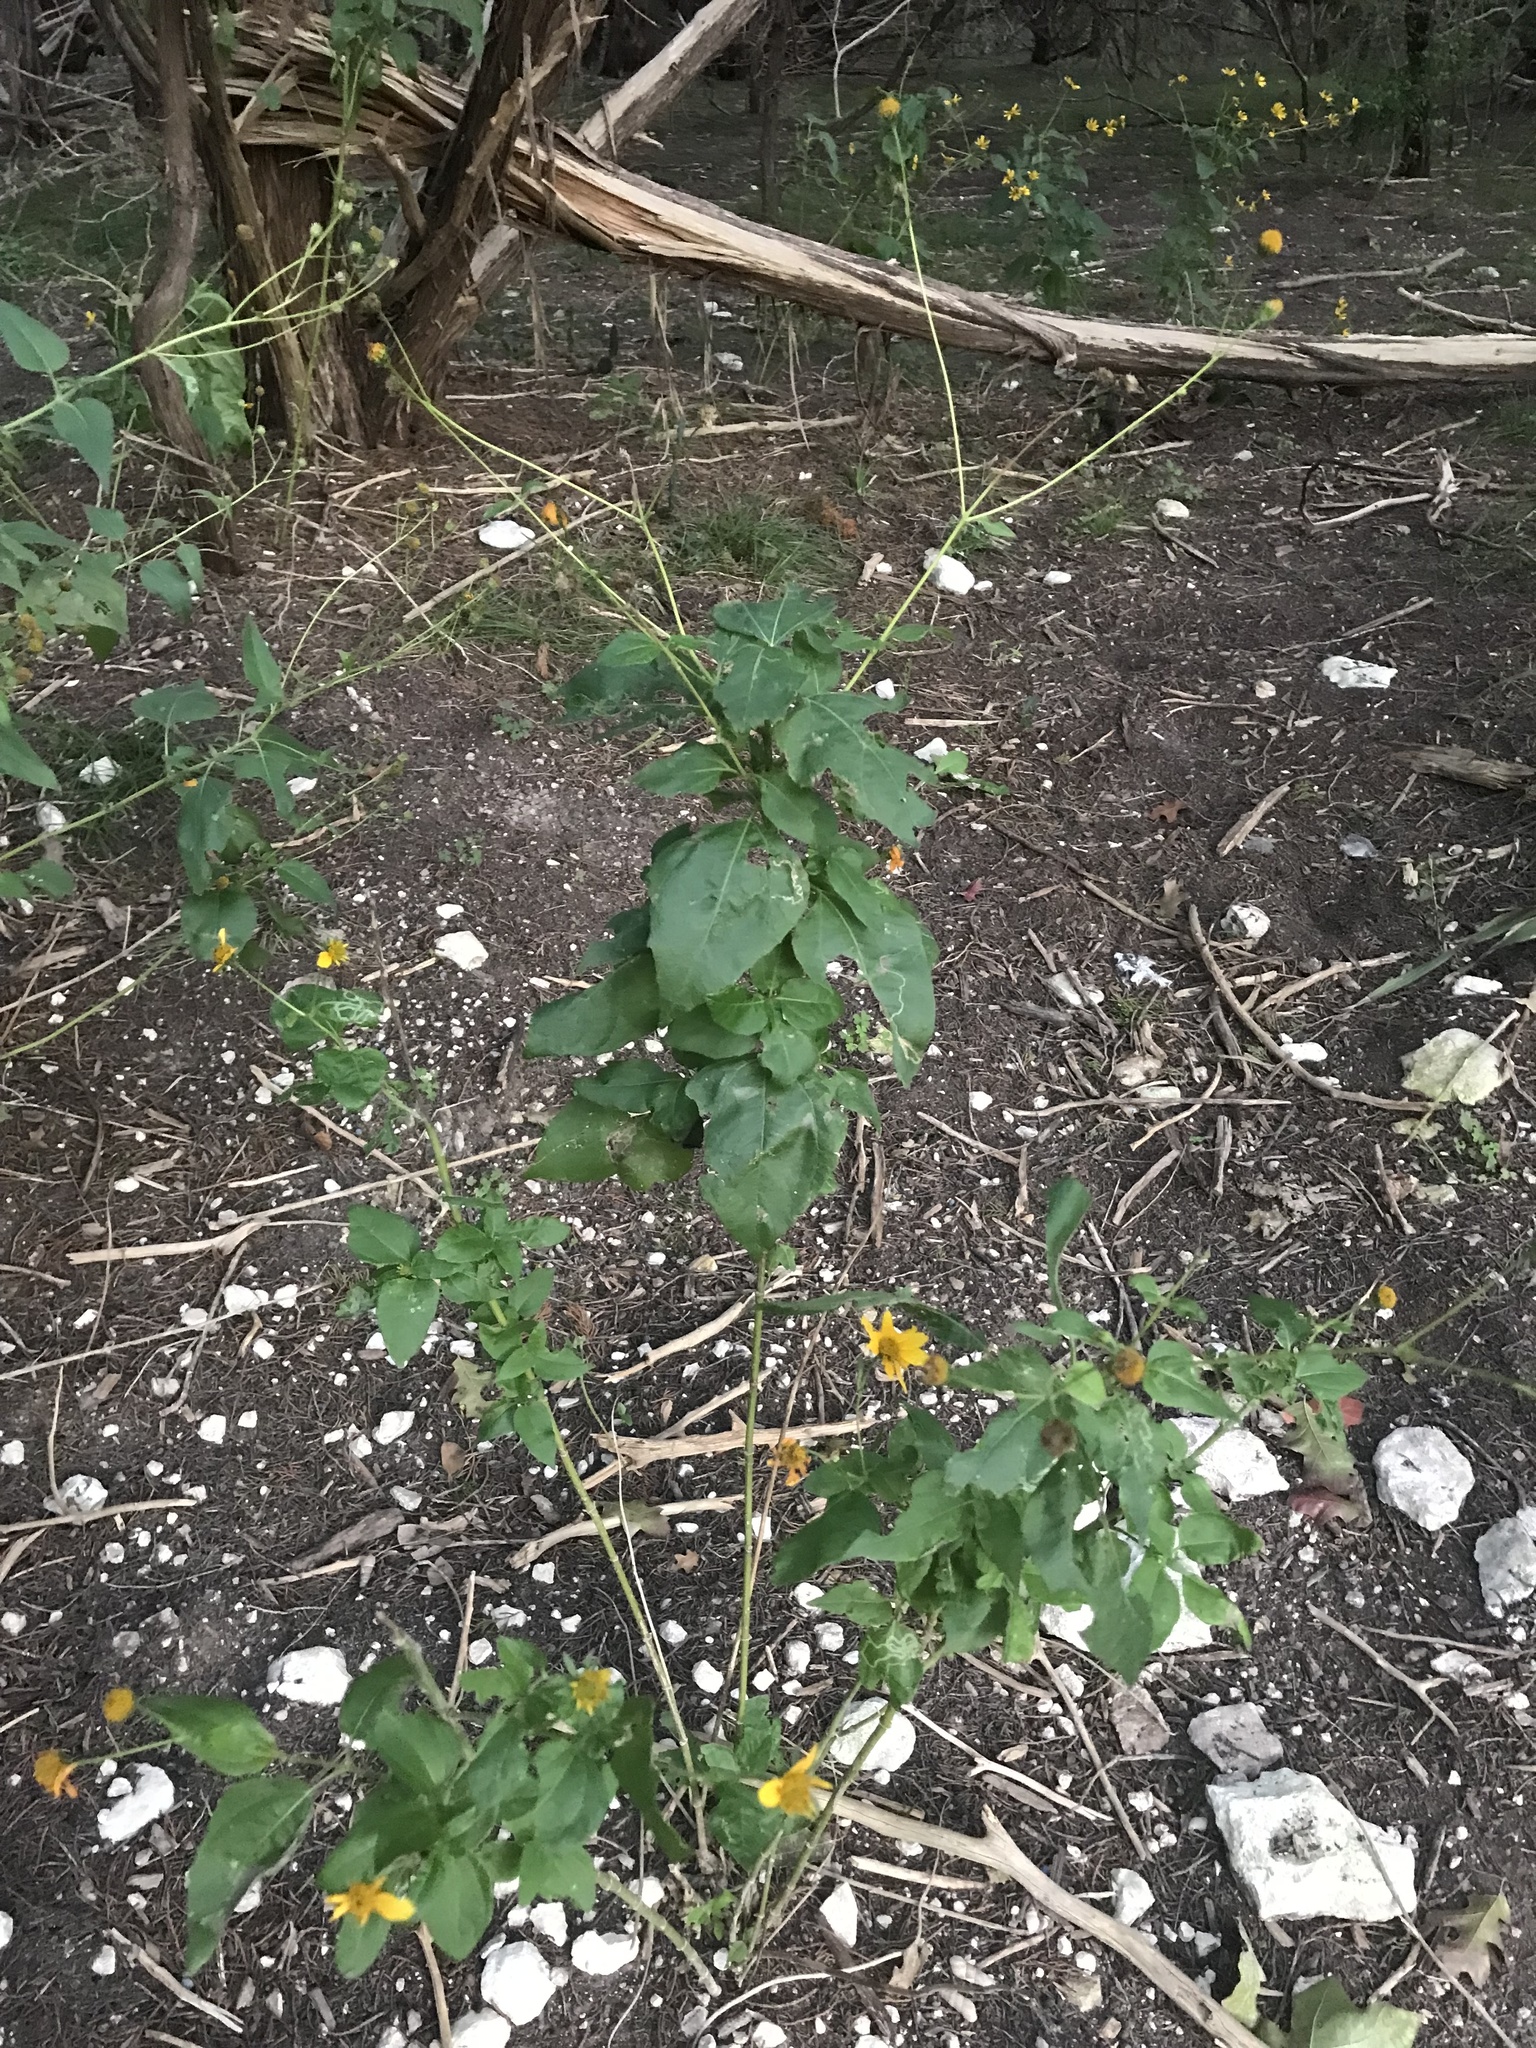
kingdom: Plantae
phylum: Tracheophyta
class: Magnoliopsida
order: Asterales
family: Asteraceae
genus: Viguiera
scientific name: Viguiera dentata
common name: Toothleaf
